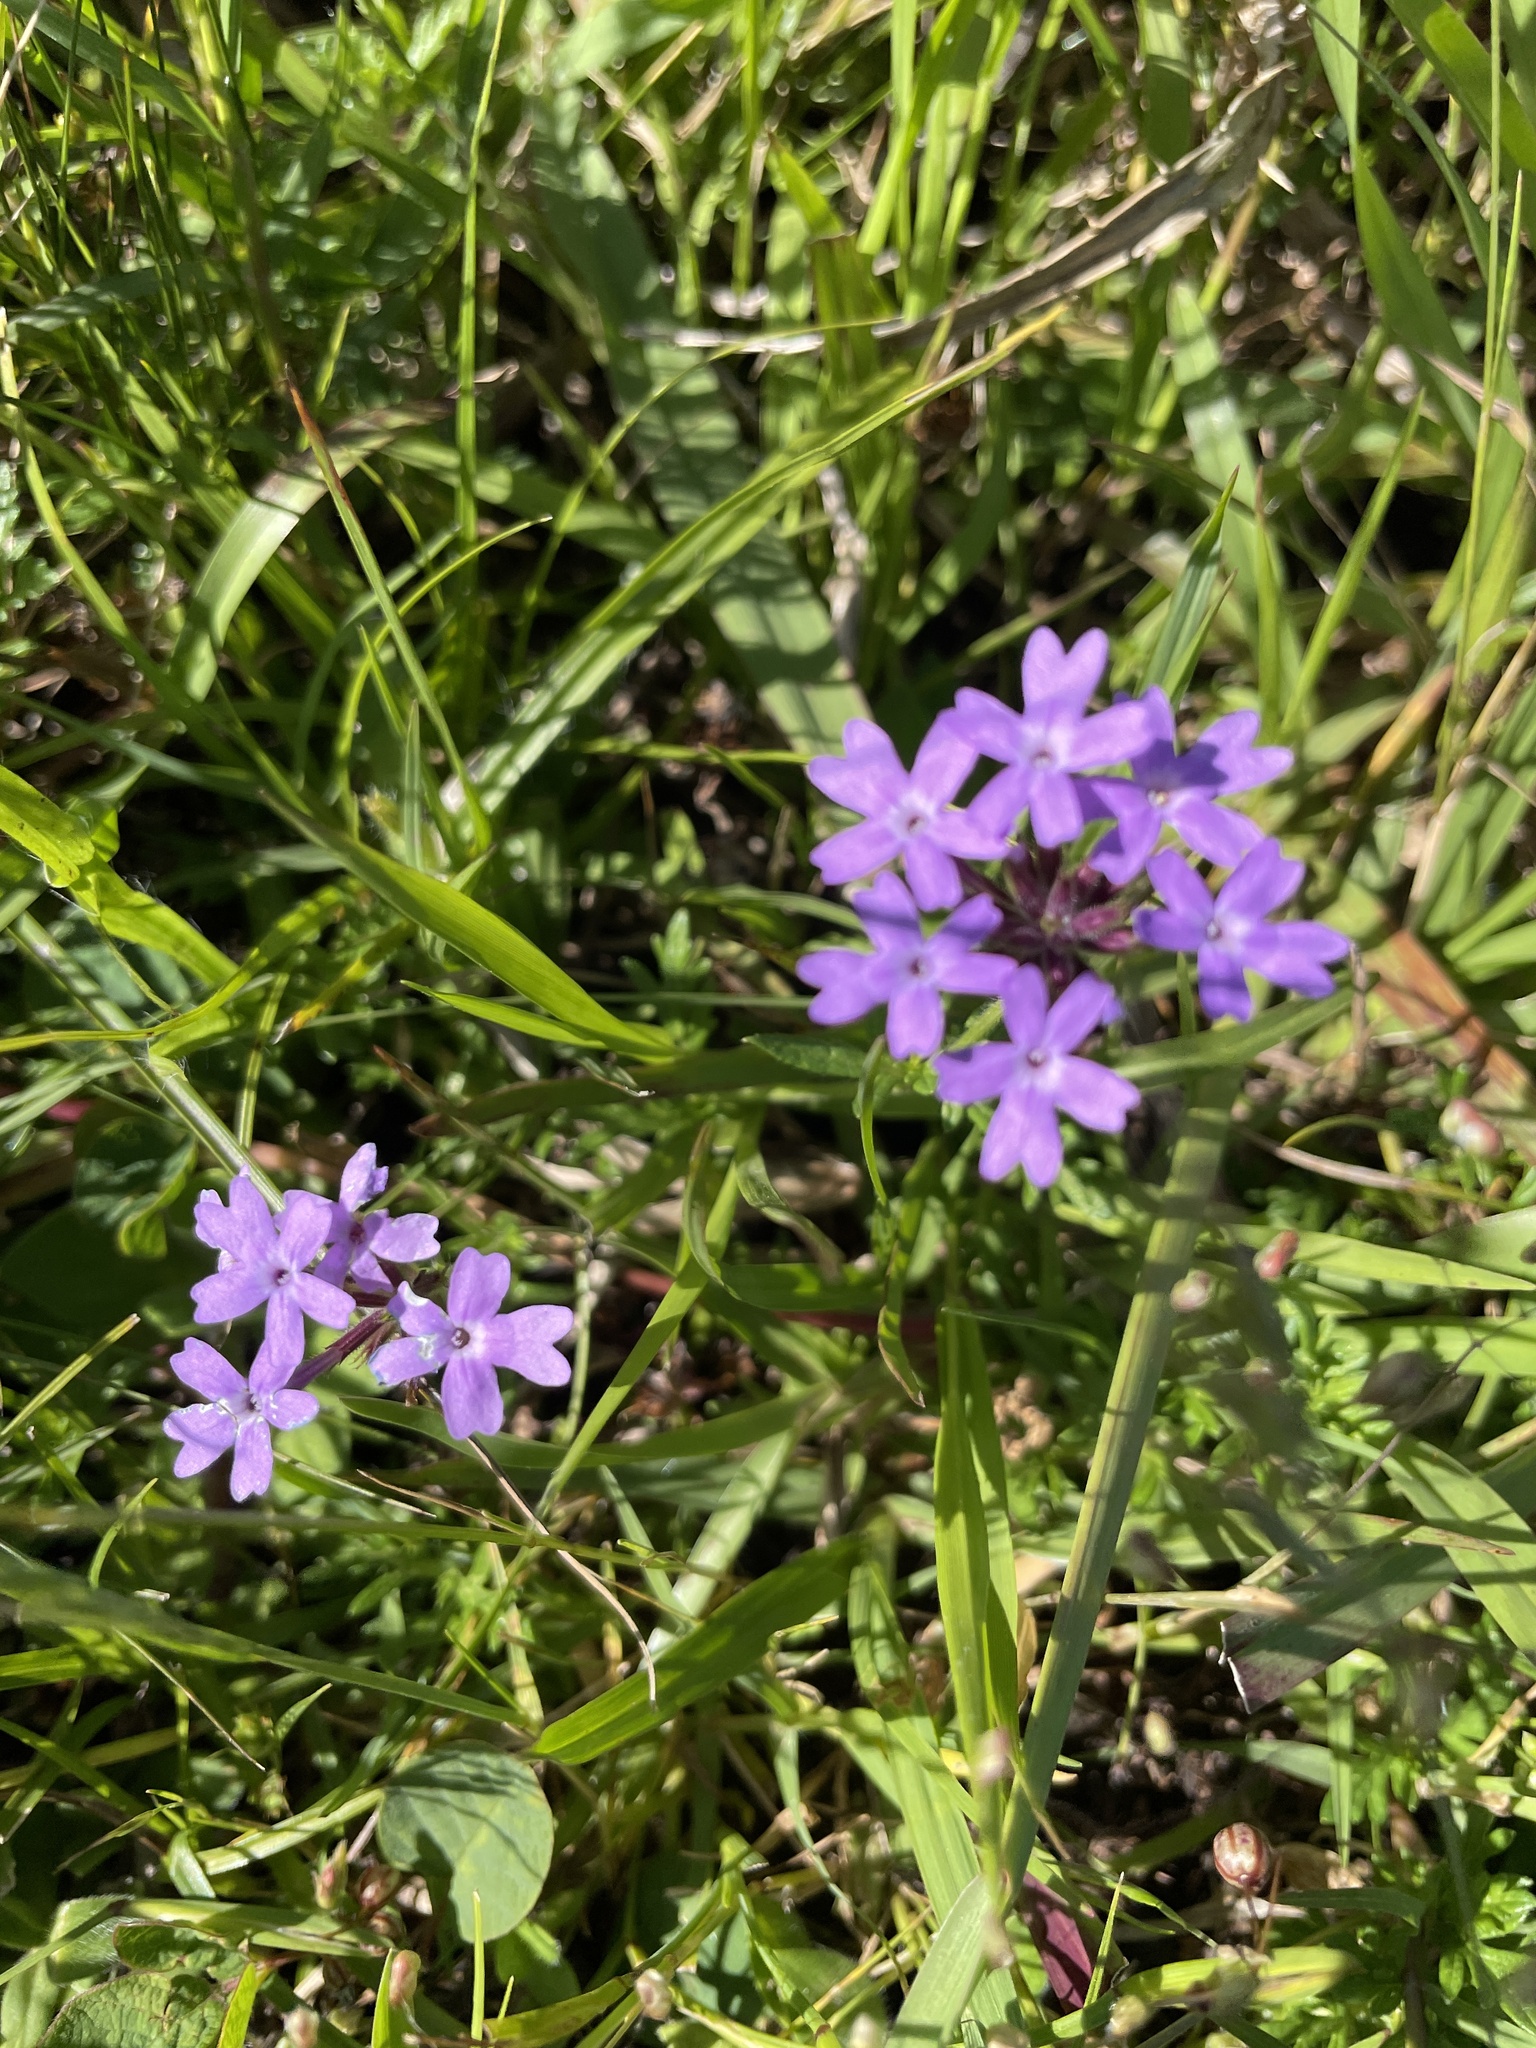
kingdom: Plantae
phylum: Tracheophyta
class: Magnoliopsida
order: Lamiales
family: Verbenaceae
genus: Verbena
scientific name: Verbena selloi
